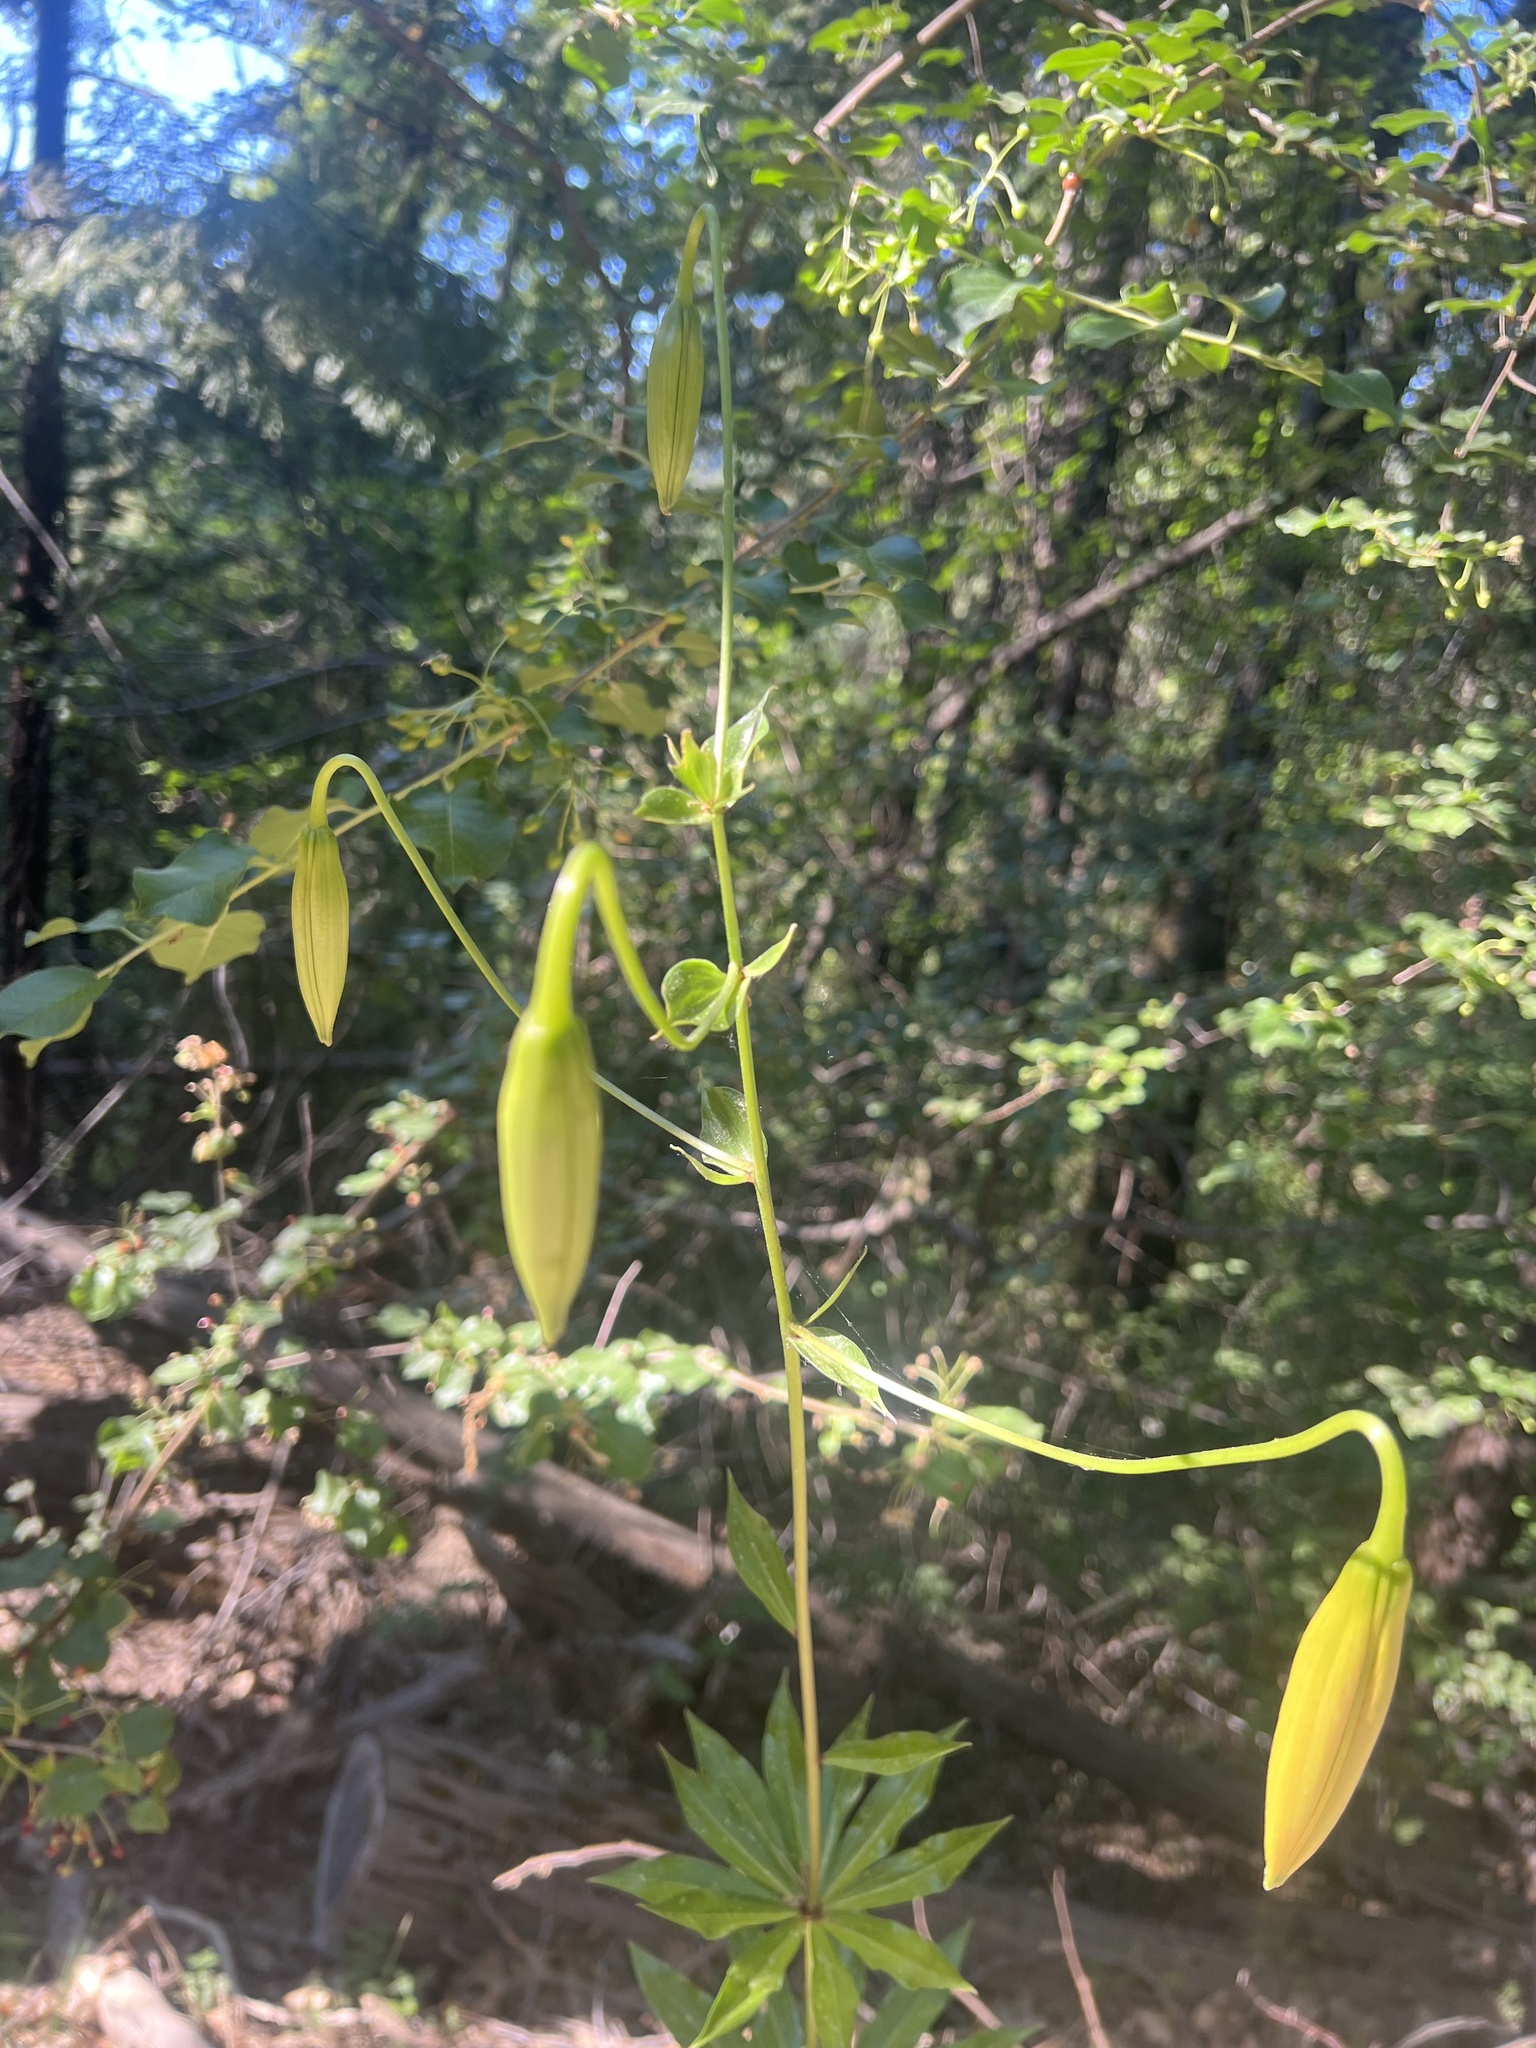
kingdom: Plantae
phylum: Tracheophyta
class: Liliopsida
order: Liliales
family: Liliaceae
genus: Lilium
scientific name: Lilium humboldtii
